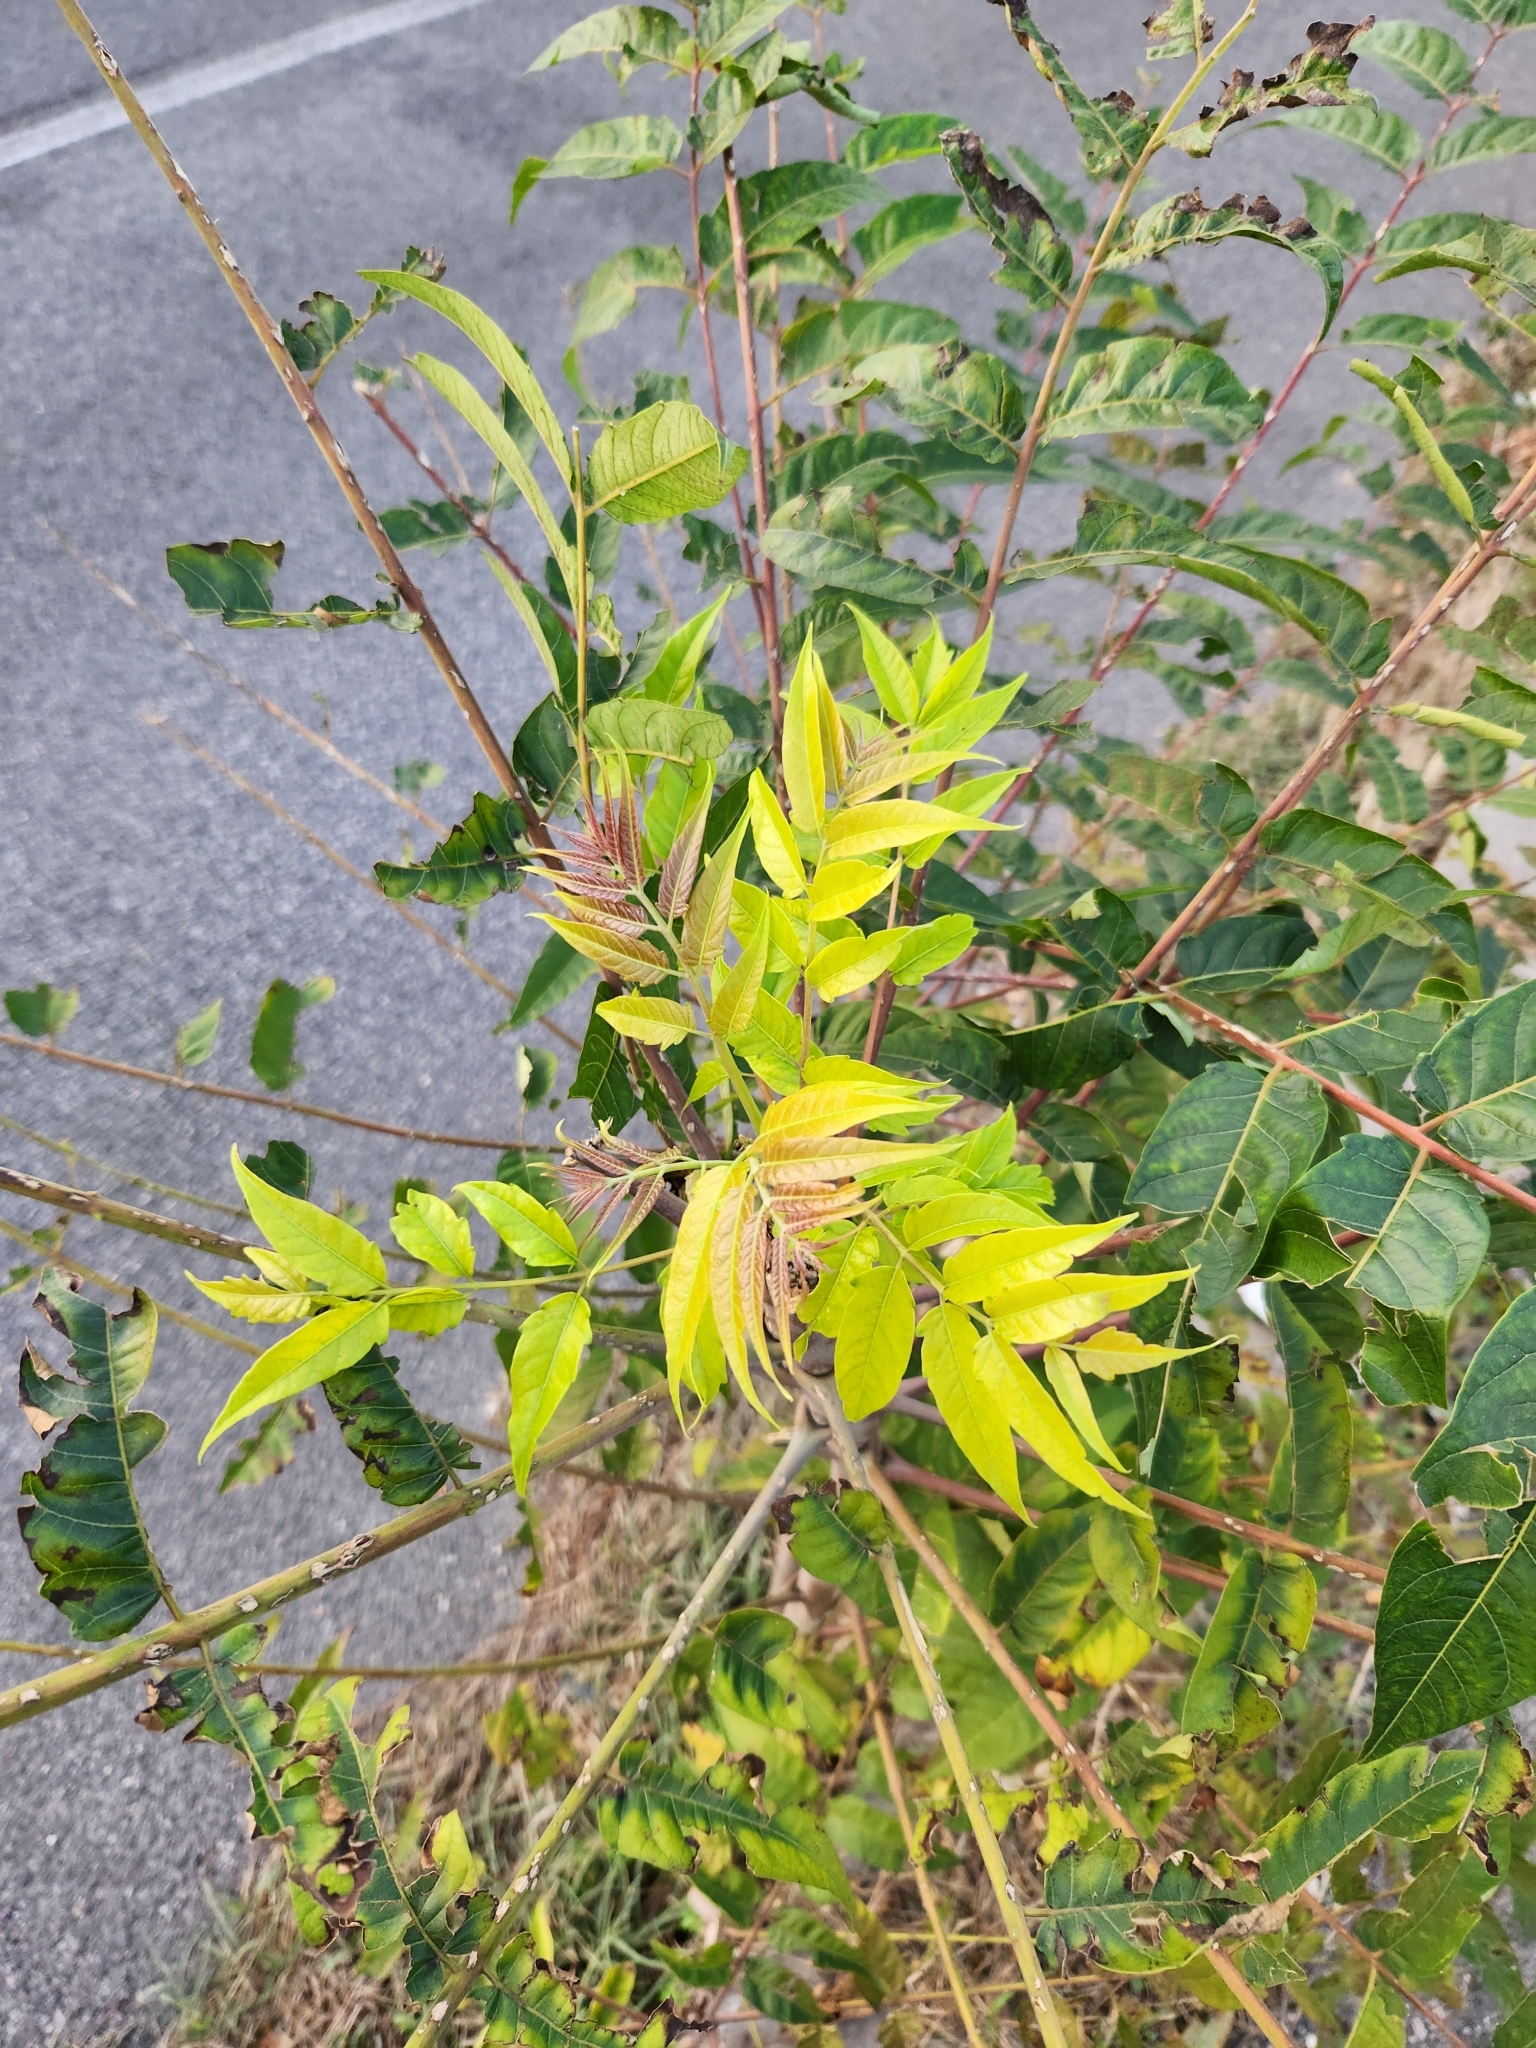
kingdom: Plantae
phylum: Tracheophyta
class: Magnoliopsida
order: Sapindales
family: Simaroubaceae
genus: Ailanthus
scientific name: Ailanthus altissima
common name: Tree-of-heaven
